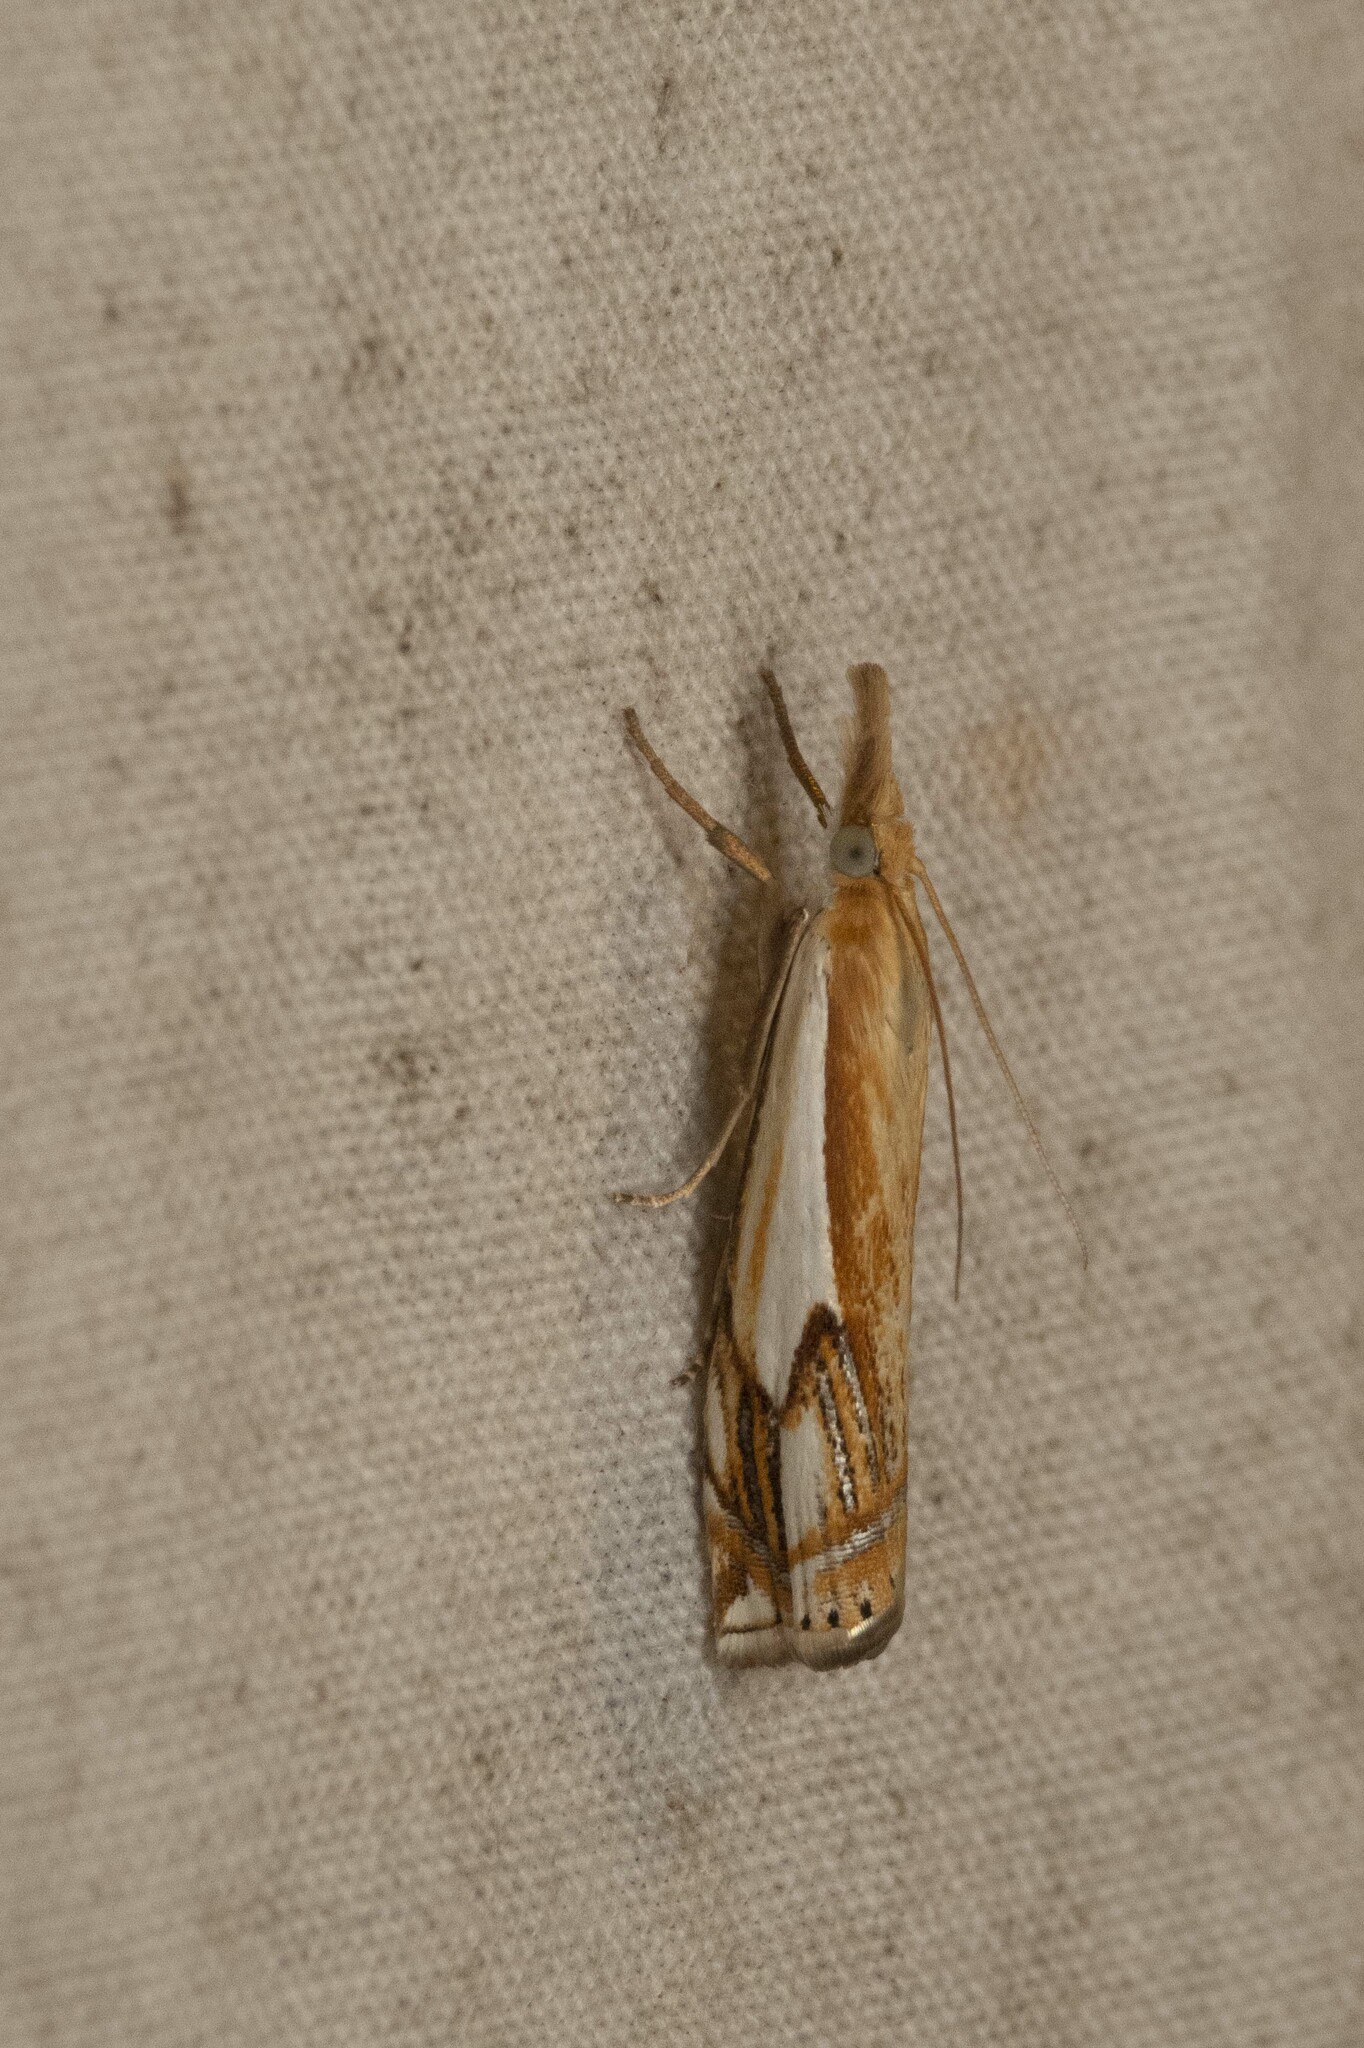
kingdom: Animalia
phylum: Arthropoda
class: Insecta
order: Lepidoptera
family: Crambidae
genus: Crambus
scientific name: Crambus agitatellus
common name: Double-banded grass-veneer
